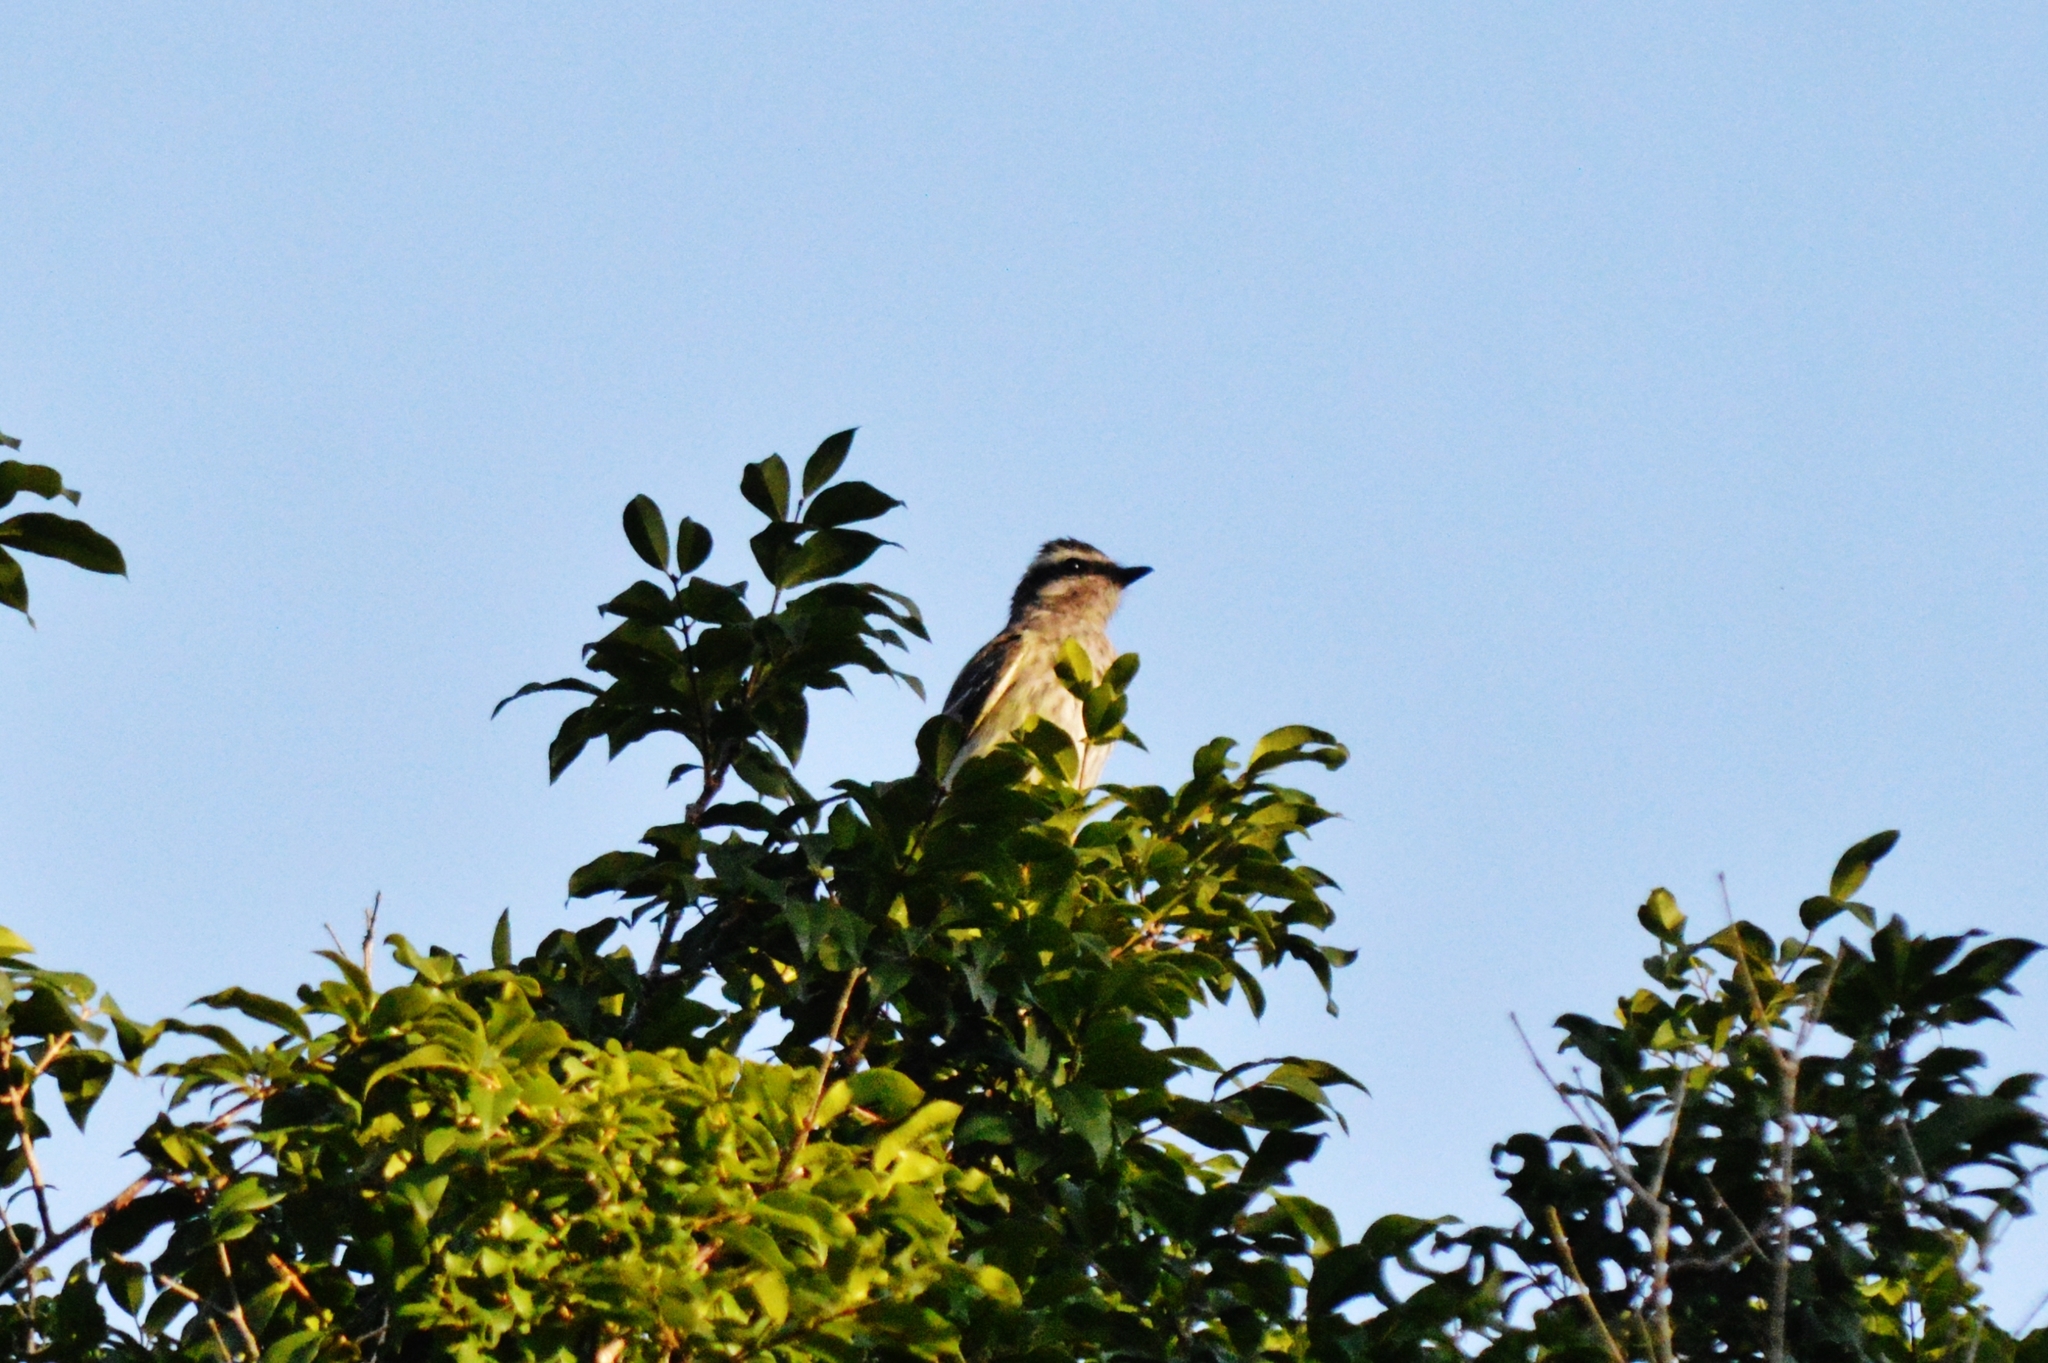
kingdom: Animalia
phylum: Chordata
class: Aves
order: Passeriformes
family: Tyrannidae
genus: Legatus
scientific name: Legatus leucophaius
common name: Piratic flycatcher
